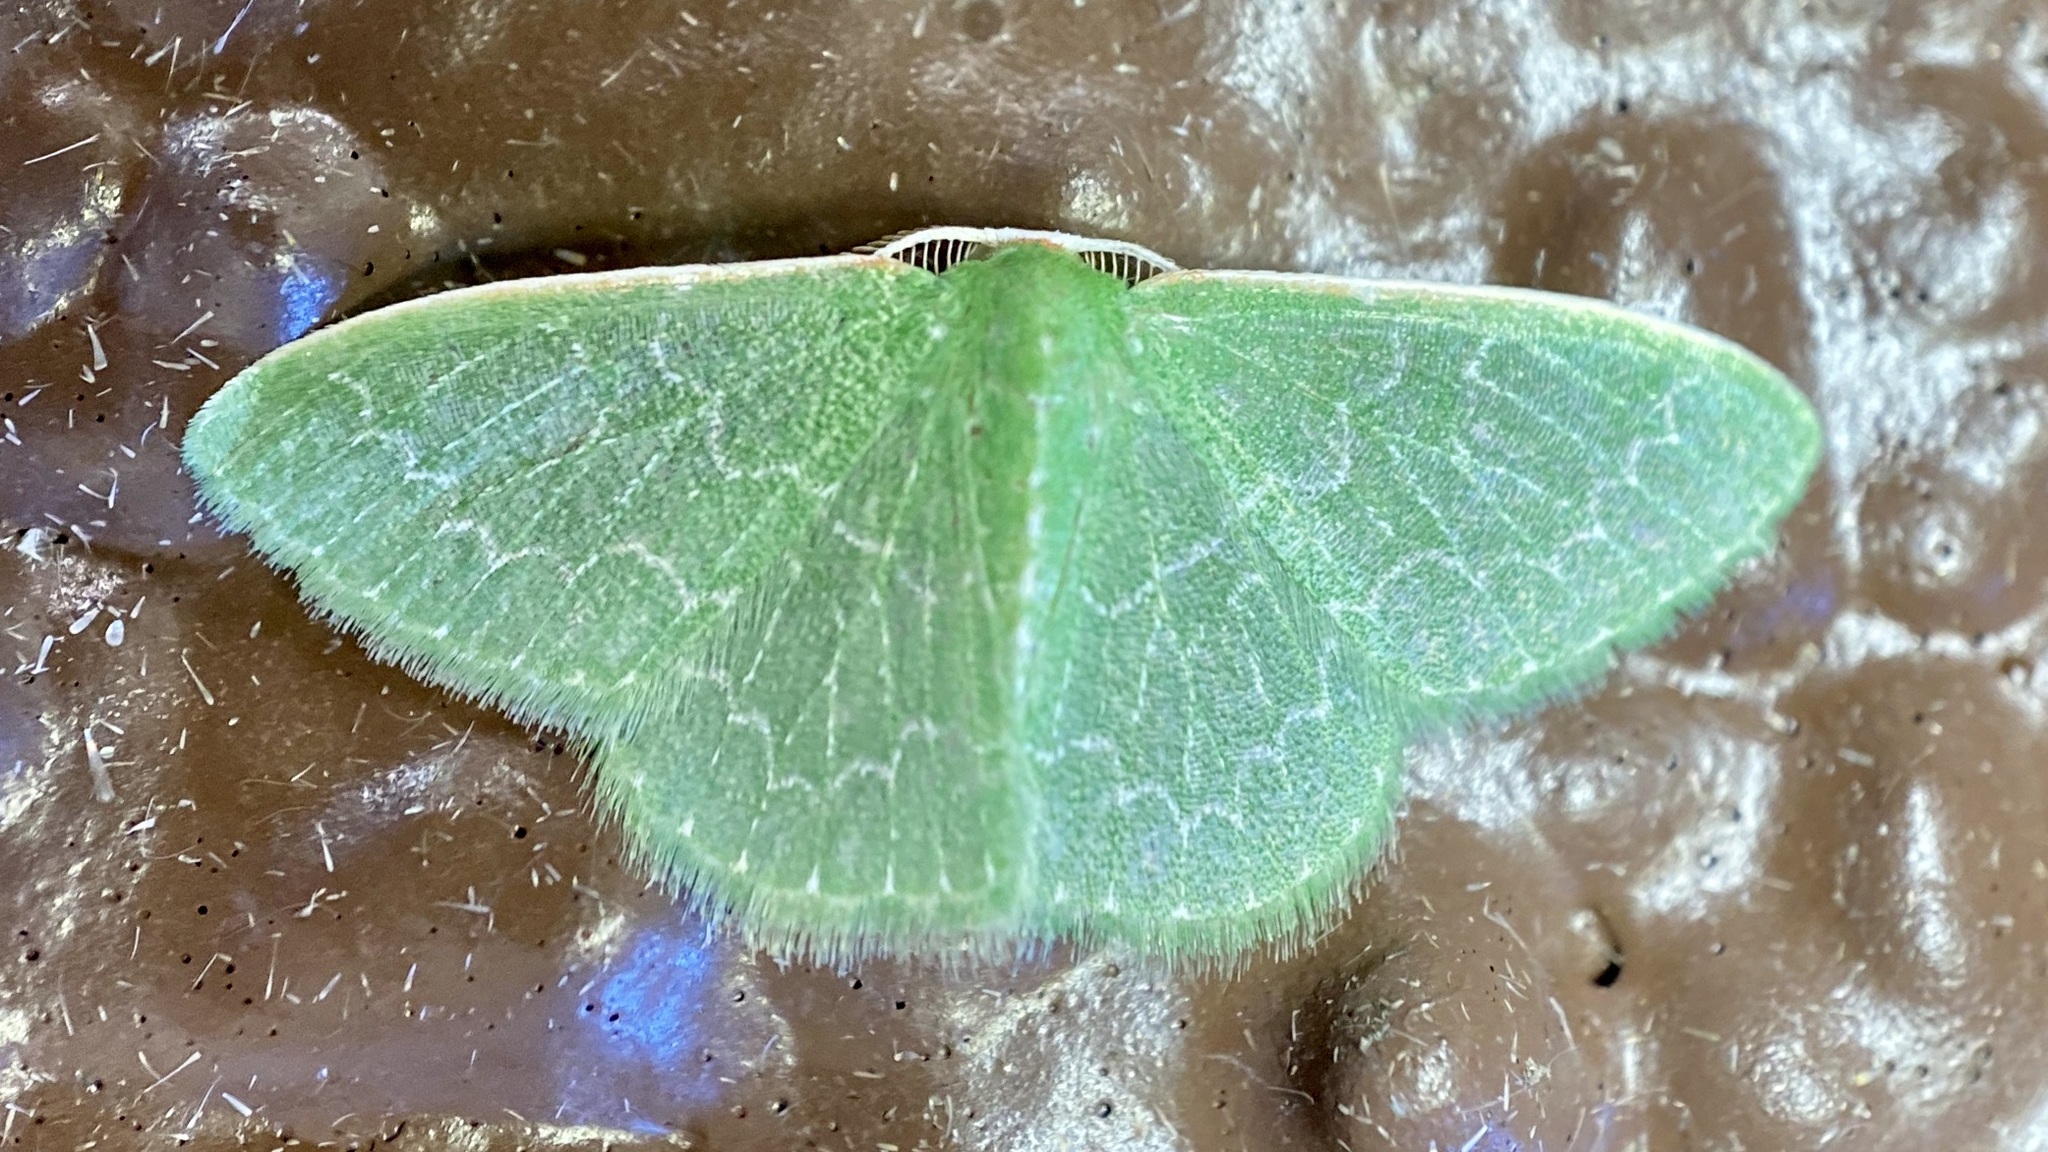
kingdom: Animalia
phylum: Arthropoda
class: Insecta
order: Lepidoptera
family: Geometridae
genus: Synchlora
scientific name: Synchlora frondaria
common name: Southern emerald
